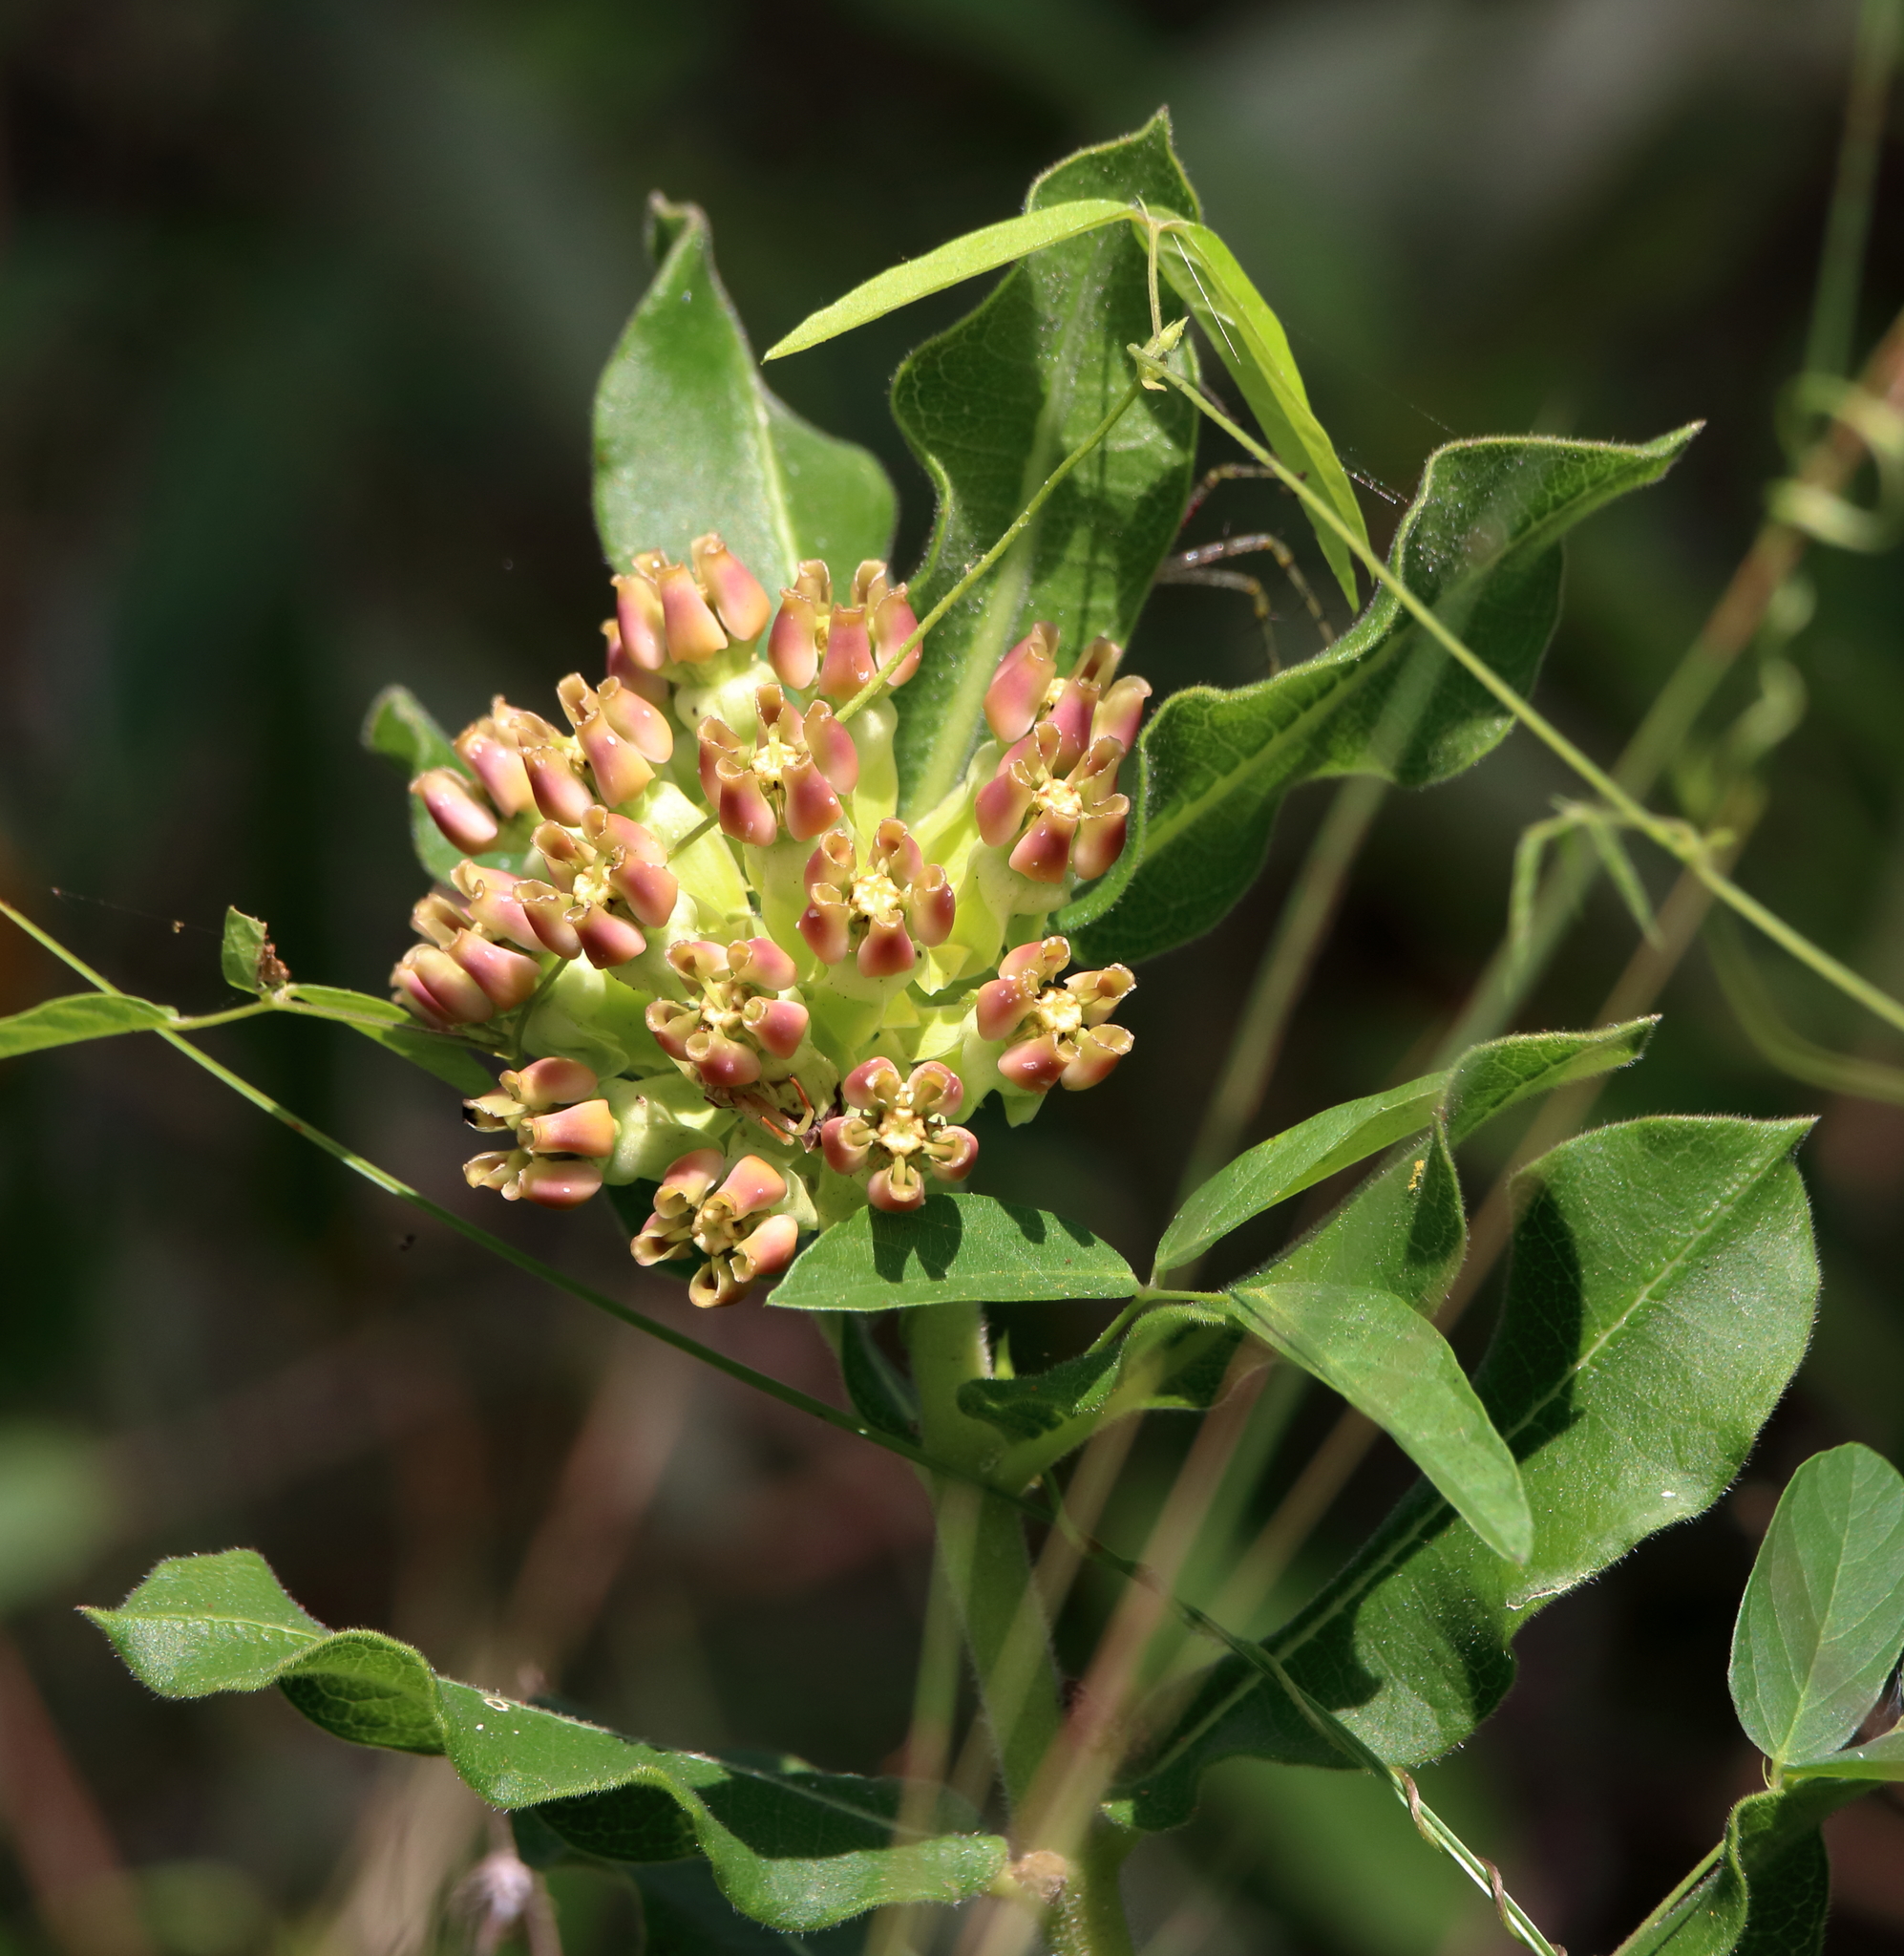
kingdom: Plantae
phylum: Tracheophyta
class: Magnoliopsida
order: Gentianales
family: Apocynaceae
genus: Asclepias
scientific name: Asclepias obovata
